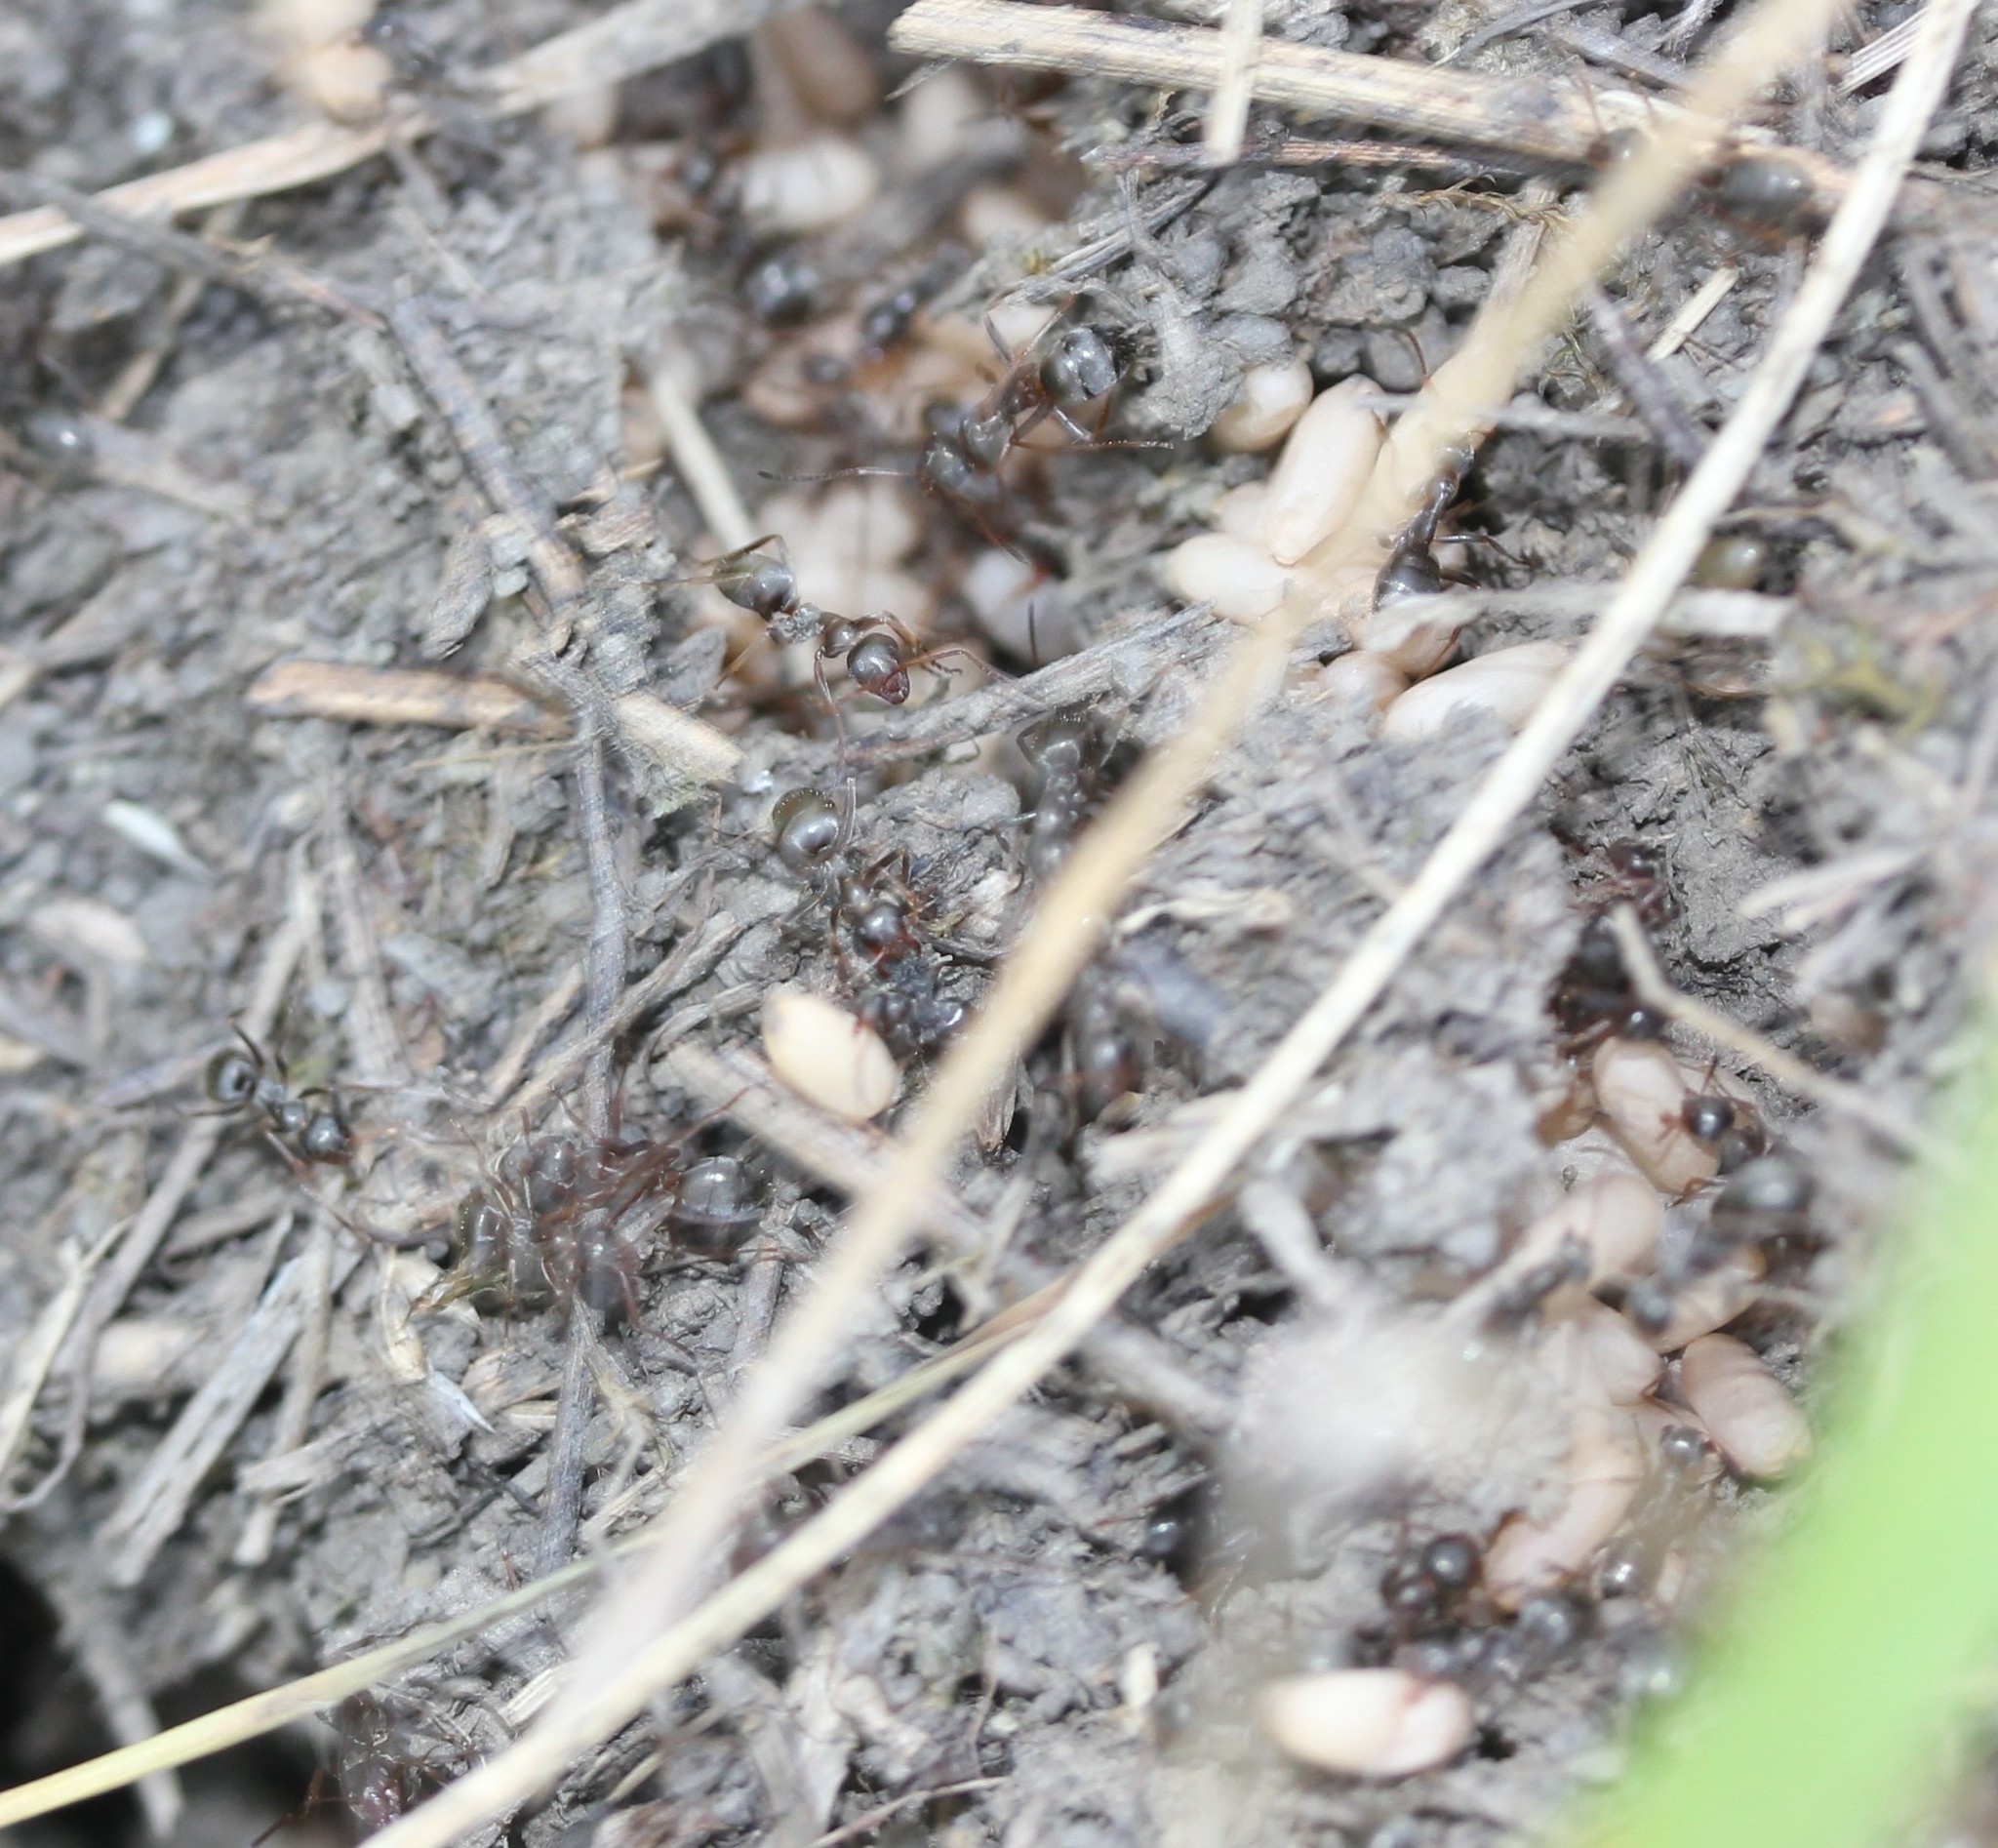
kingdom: Animalia
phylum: Arthropoda
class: Insecta
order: Hymenoptera
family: Formicidae
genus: Formica
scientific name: Formica montana
